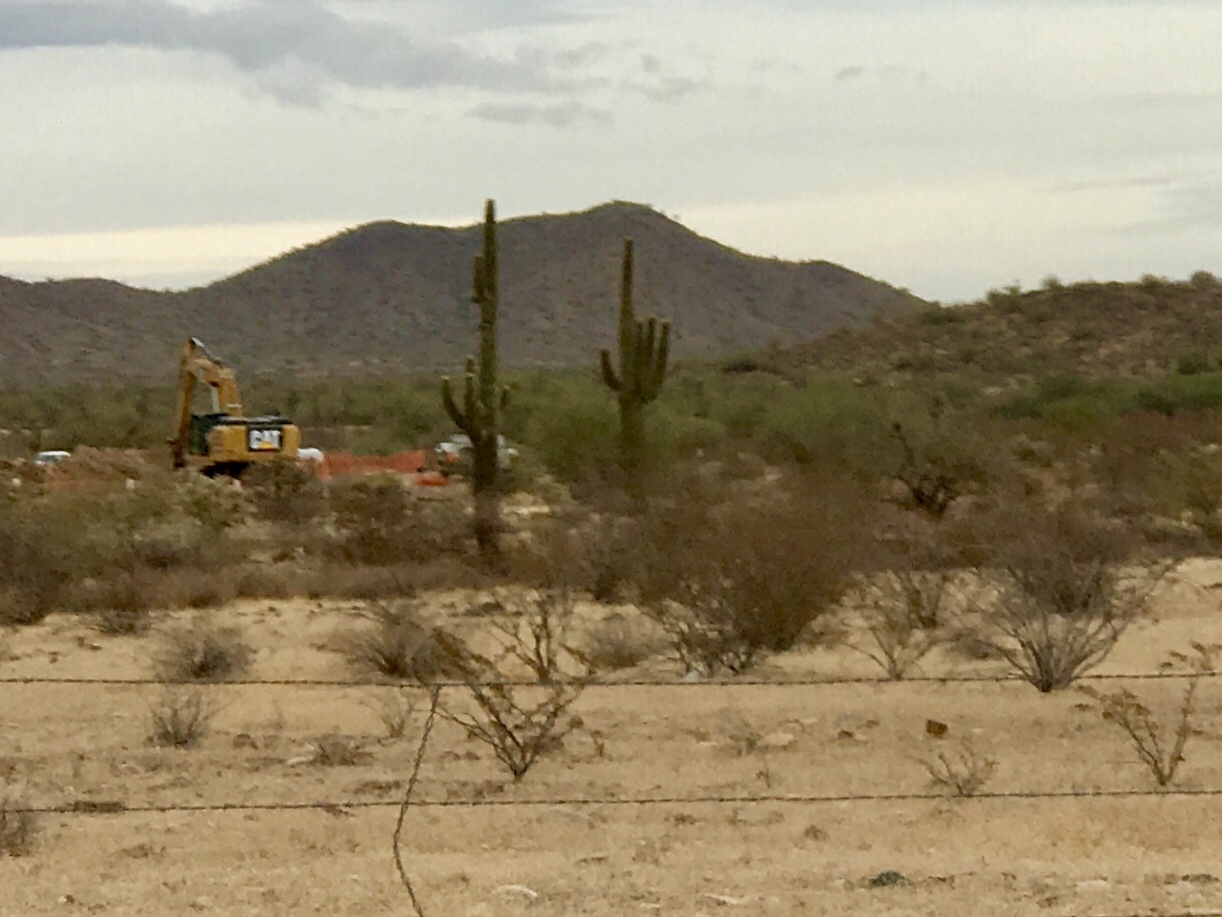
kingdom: Plantae
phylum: Tracheophyta
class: Magnoliopsida
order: Caryophyllales
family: Cactaceae
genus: Carnegiea
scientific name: Carnegiea gigantea
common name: Saguaro
